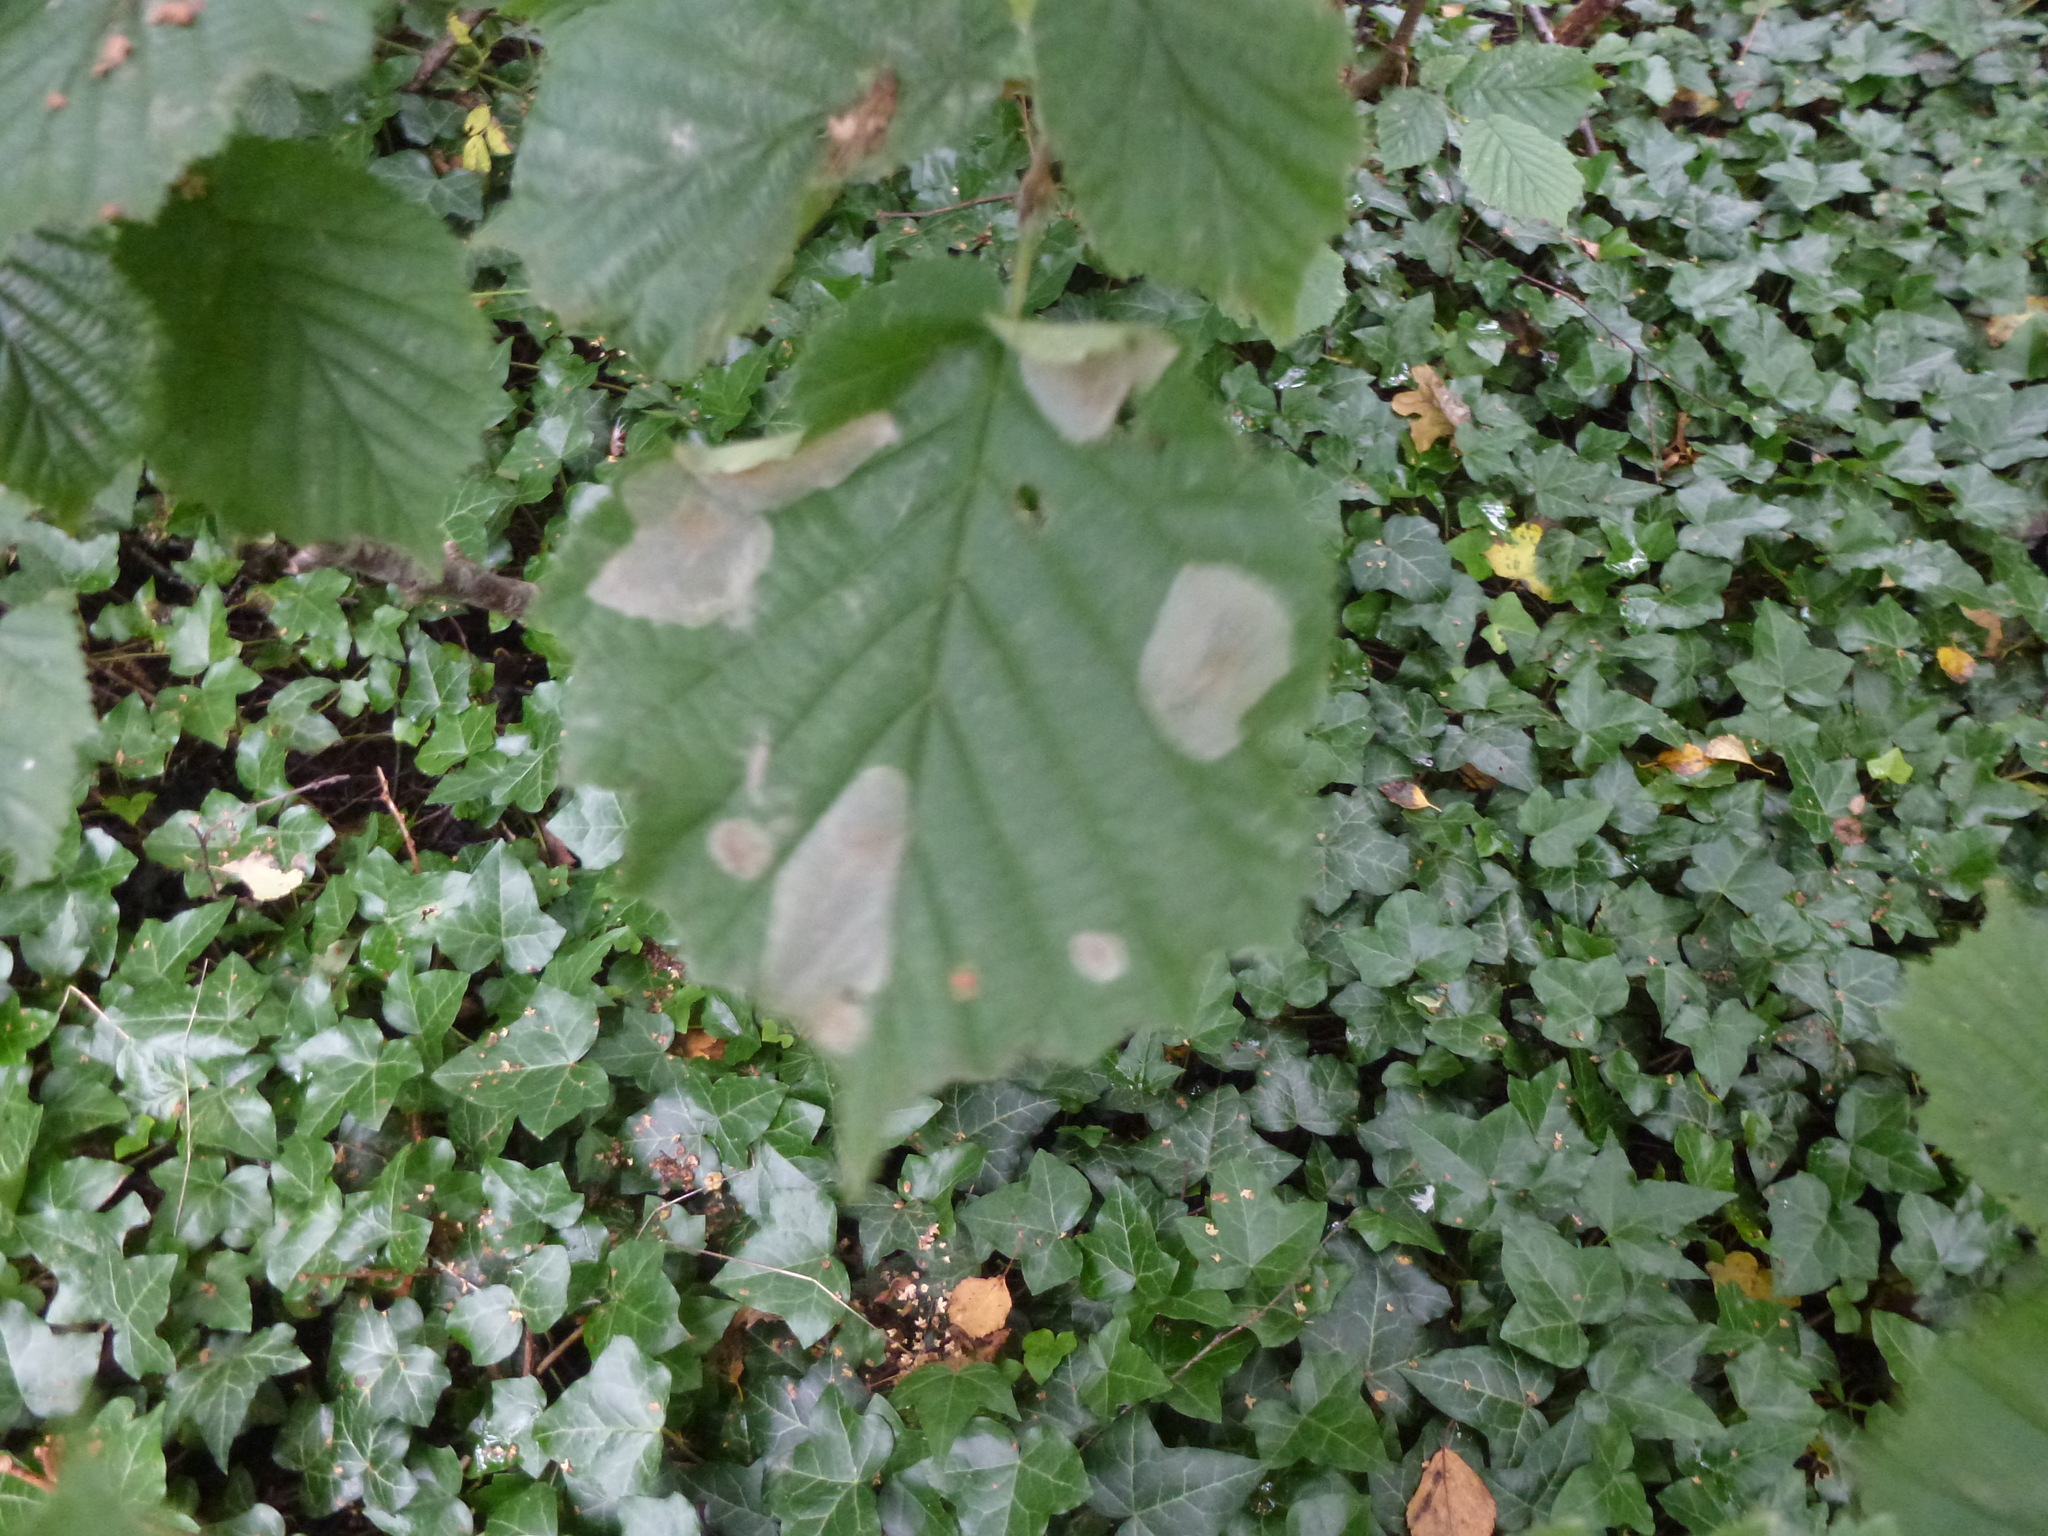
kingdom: Animalia
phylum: Arthropoda
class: Insecta
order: Lepidoptera
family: Gracillariidae
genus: Phyllonorycter
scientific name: Phyllonorycter coryli
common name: Nut-leaf blister moth
